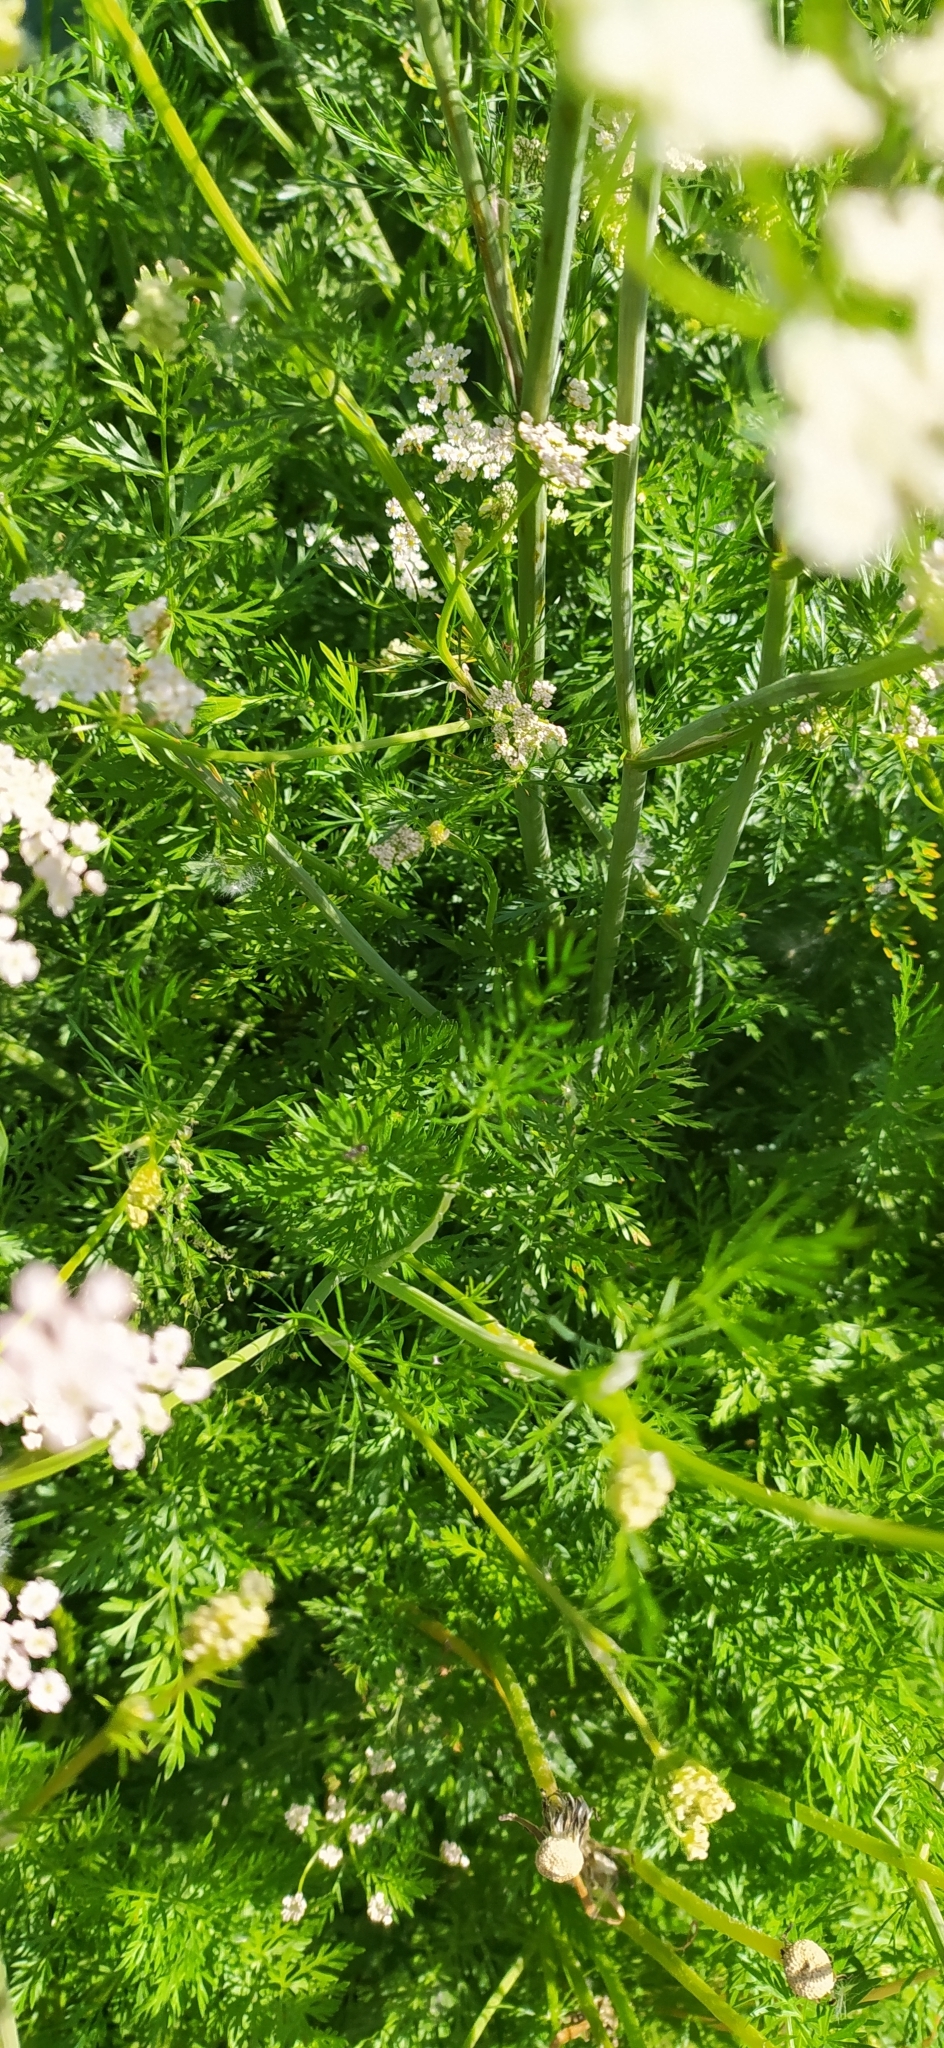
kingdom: Plantae
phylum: Tracheophyta
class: Magnoliopsida
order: Apiales
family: Apiaceae
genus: Carum
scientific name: Carum carvi
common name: Caraway
